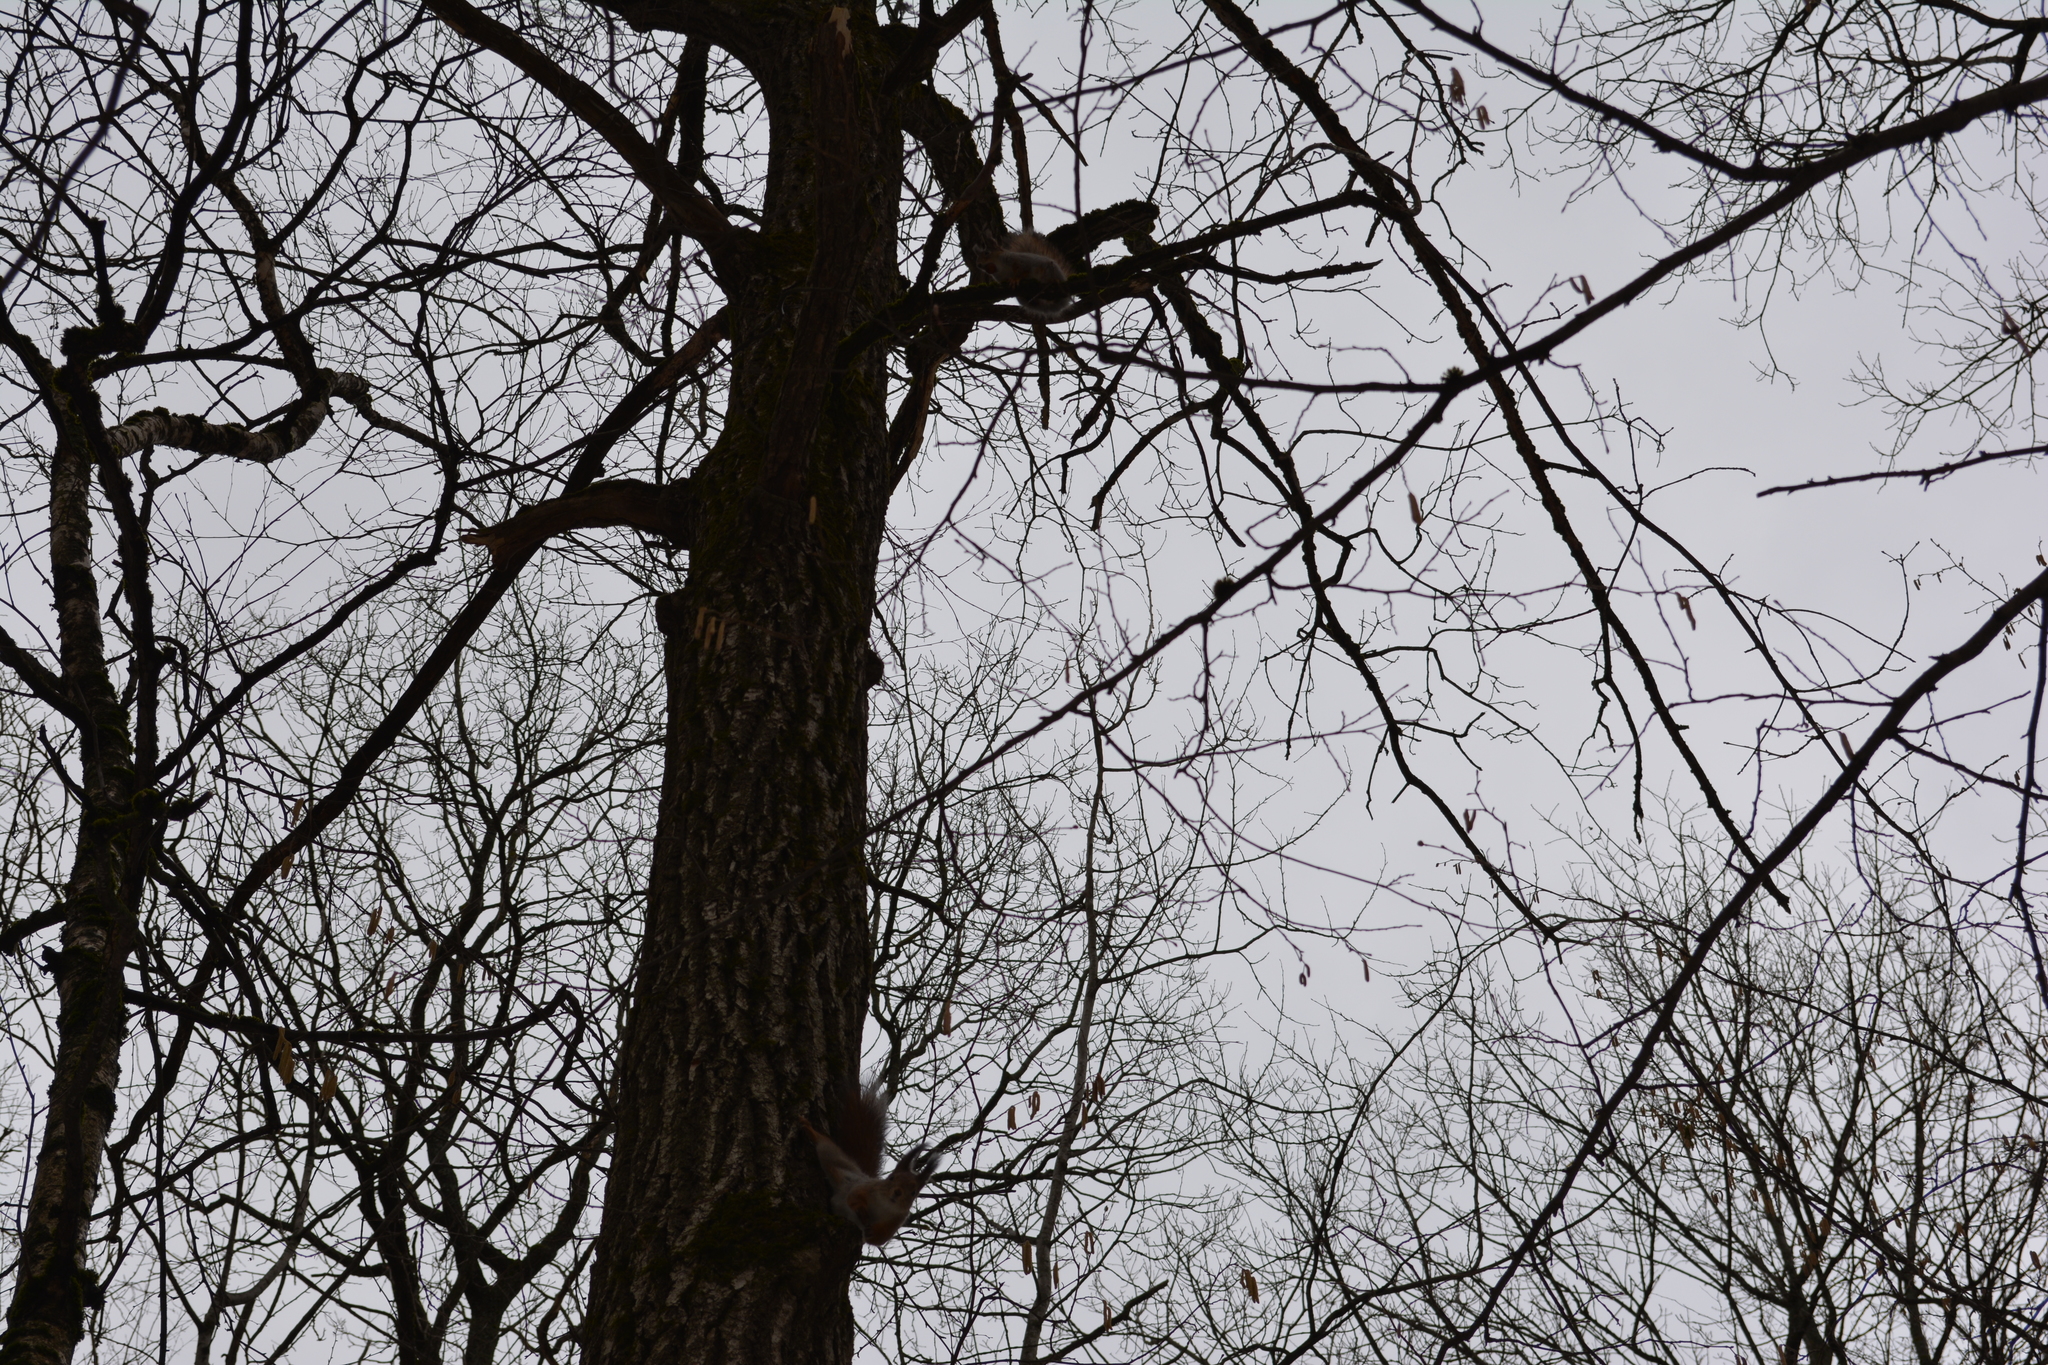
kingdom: Animalia
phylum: Chordata
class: Mammalia
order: Rodentia
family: Sciuridae
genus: Sciurus
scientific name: Sciurus vulgaris
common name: Eurasian red squirrel
